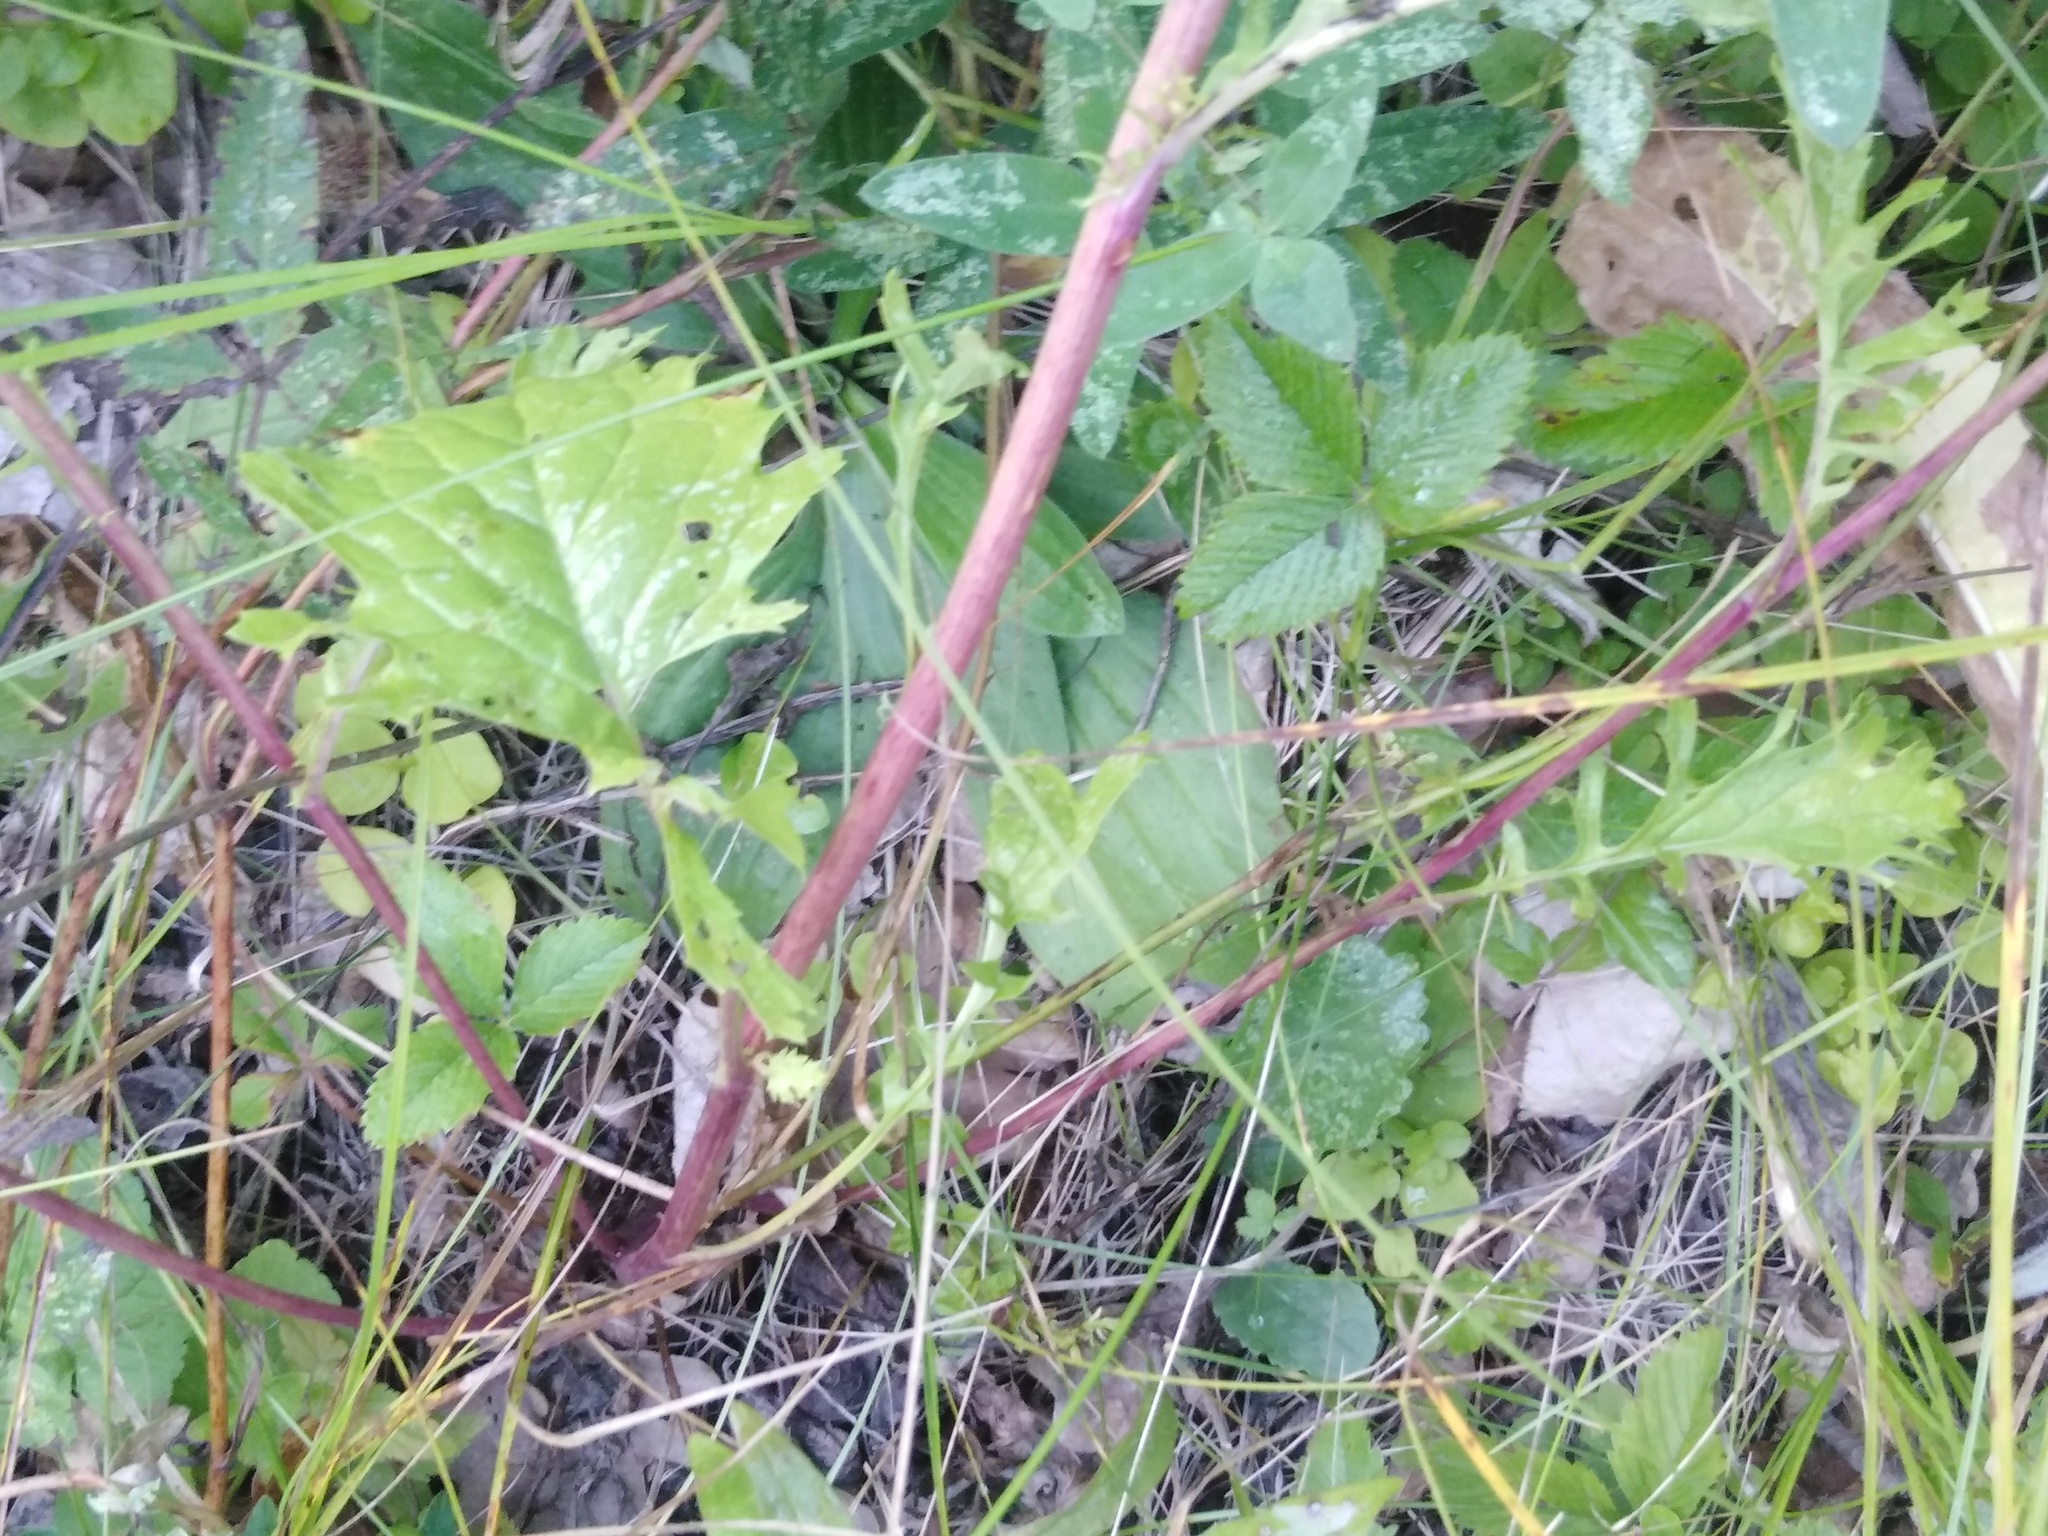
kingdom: Plantae
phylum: Tracheophyta
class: Magnoliopsida
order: Asterales
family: Asteraceae
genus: Jacobaea
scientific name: Jacobaea vulgaris
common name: Stinking willie
